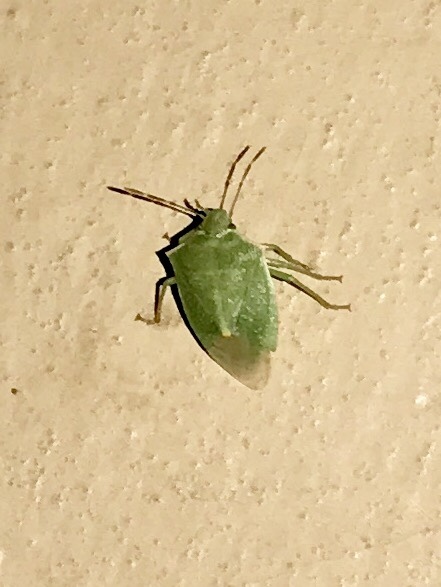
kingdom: Animalia
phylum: Arthropoda
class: Insecta
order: Hemiptera
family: Pentatomidae
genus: Thyanta
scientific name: Thyanta accerra
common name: Stink bug
